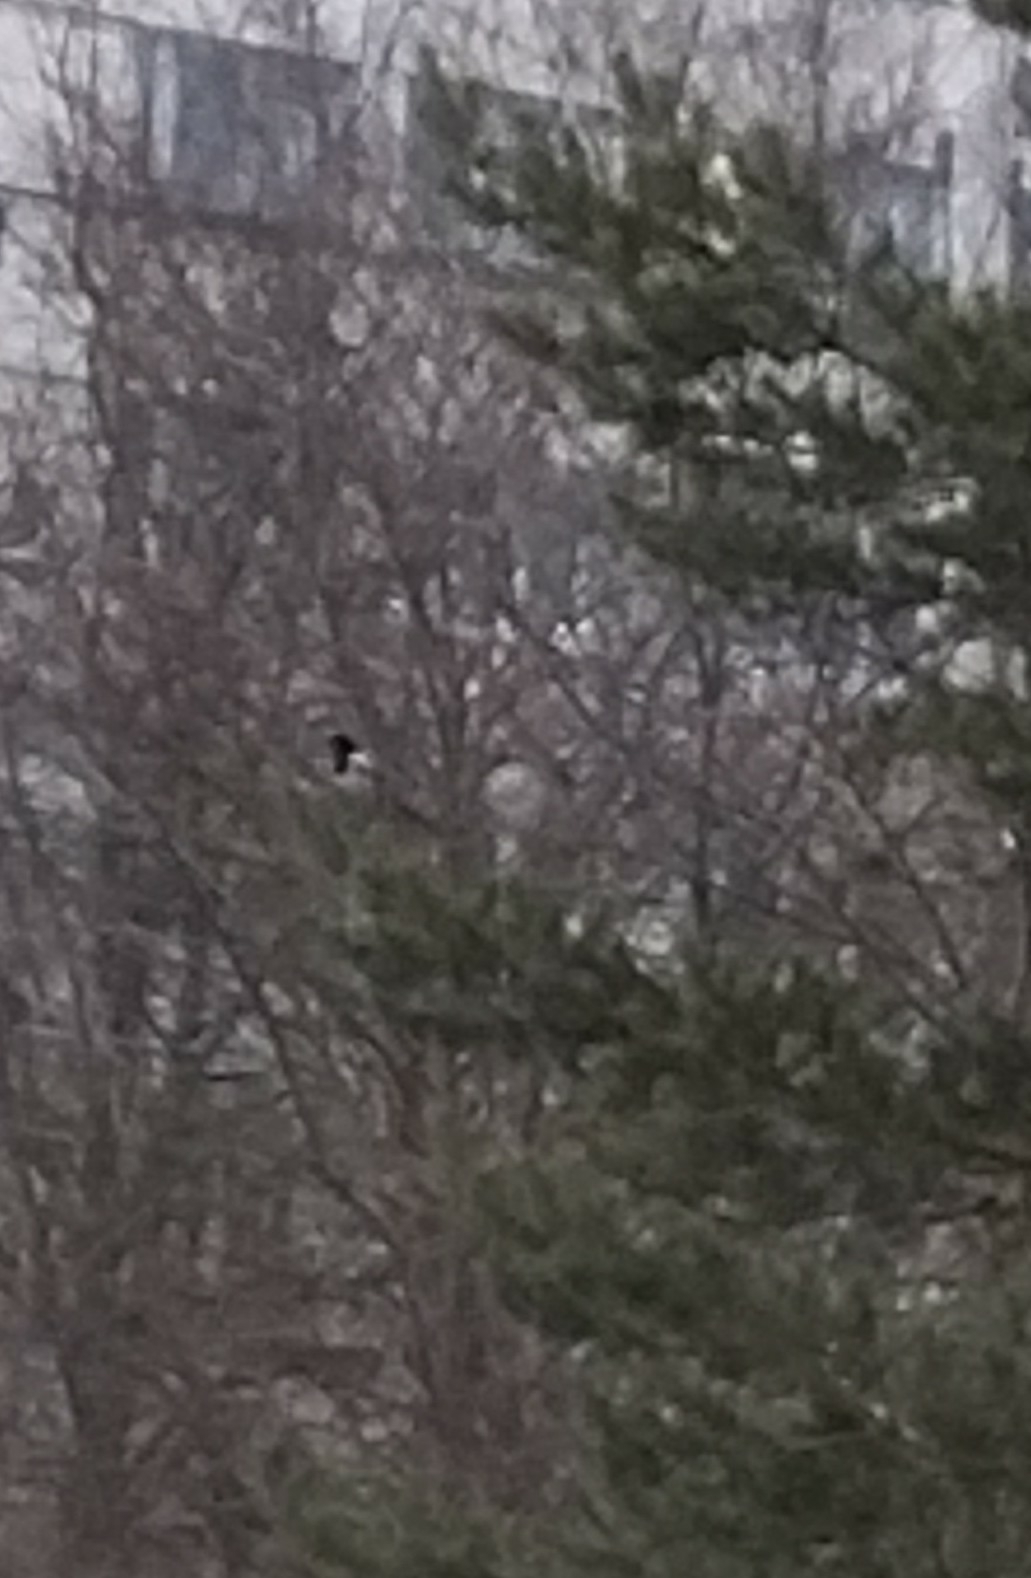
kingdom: Animalia
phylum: Chordata
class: Aves
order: Passeriformes
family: Corvidae
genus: Pica
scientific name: Pica pica
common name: Eurasian magpie
